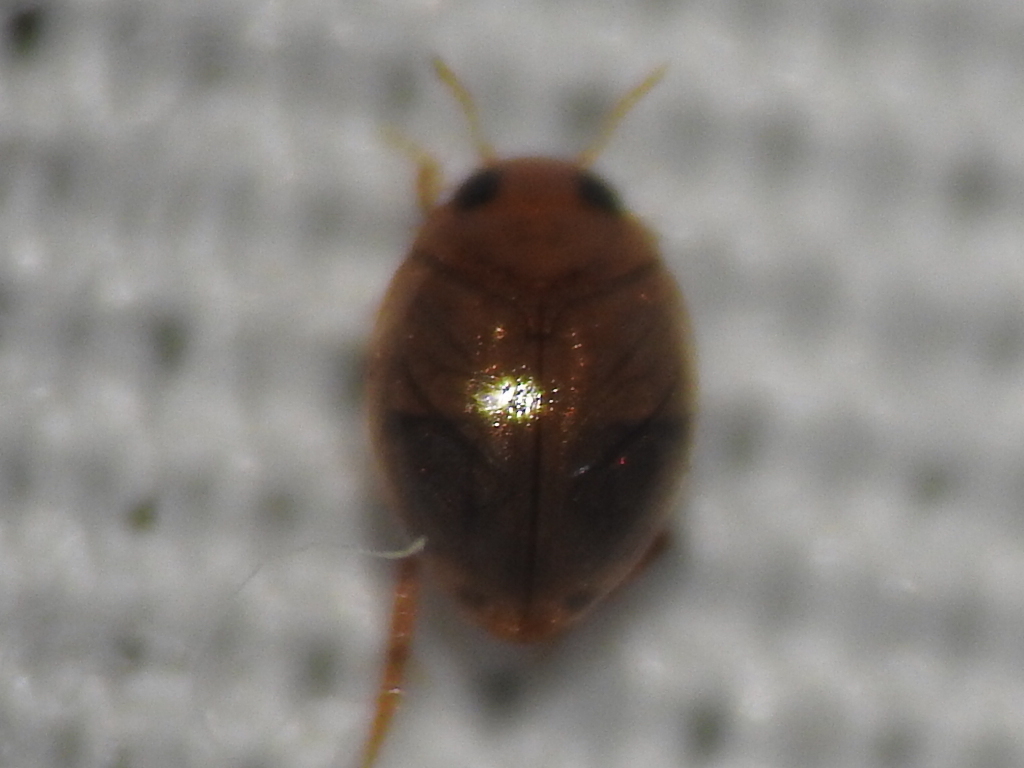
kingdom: Animalia
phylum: Arthropoda
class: Insecta
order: Coleoptera
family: Dytiscidae
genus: Desmopachria
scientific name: Desmopachria
